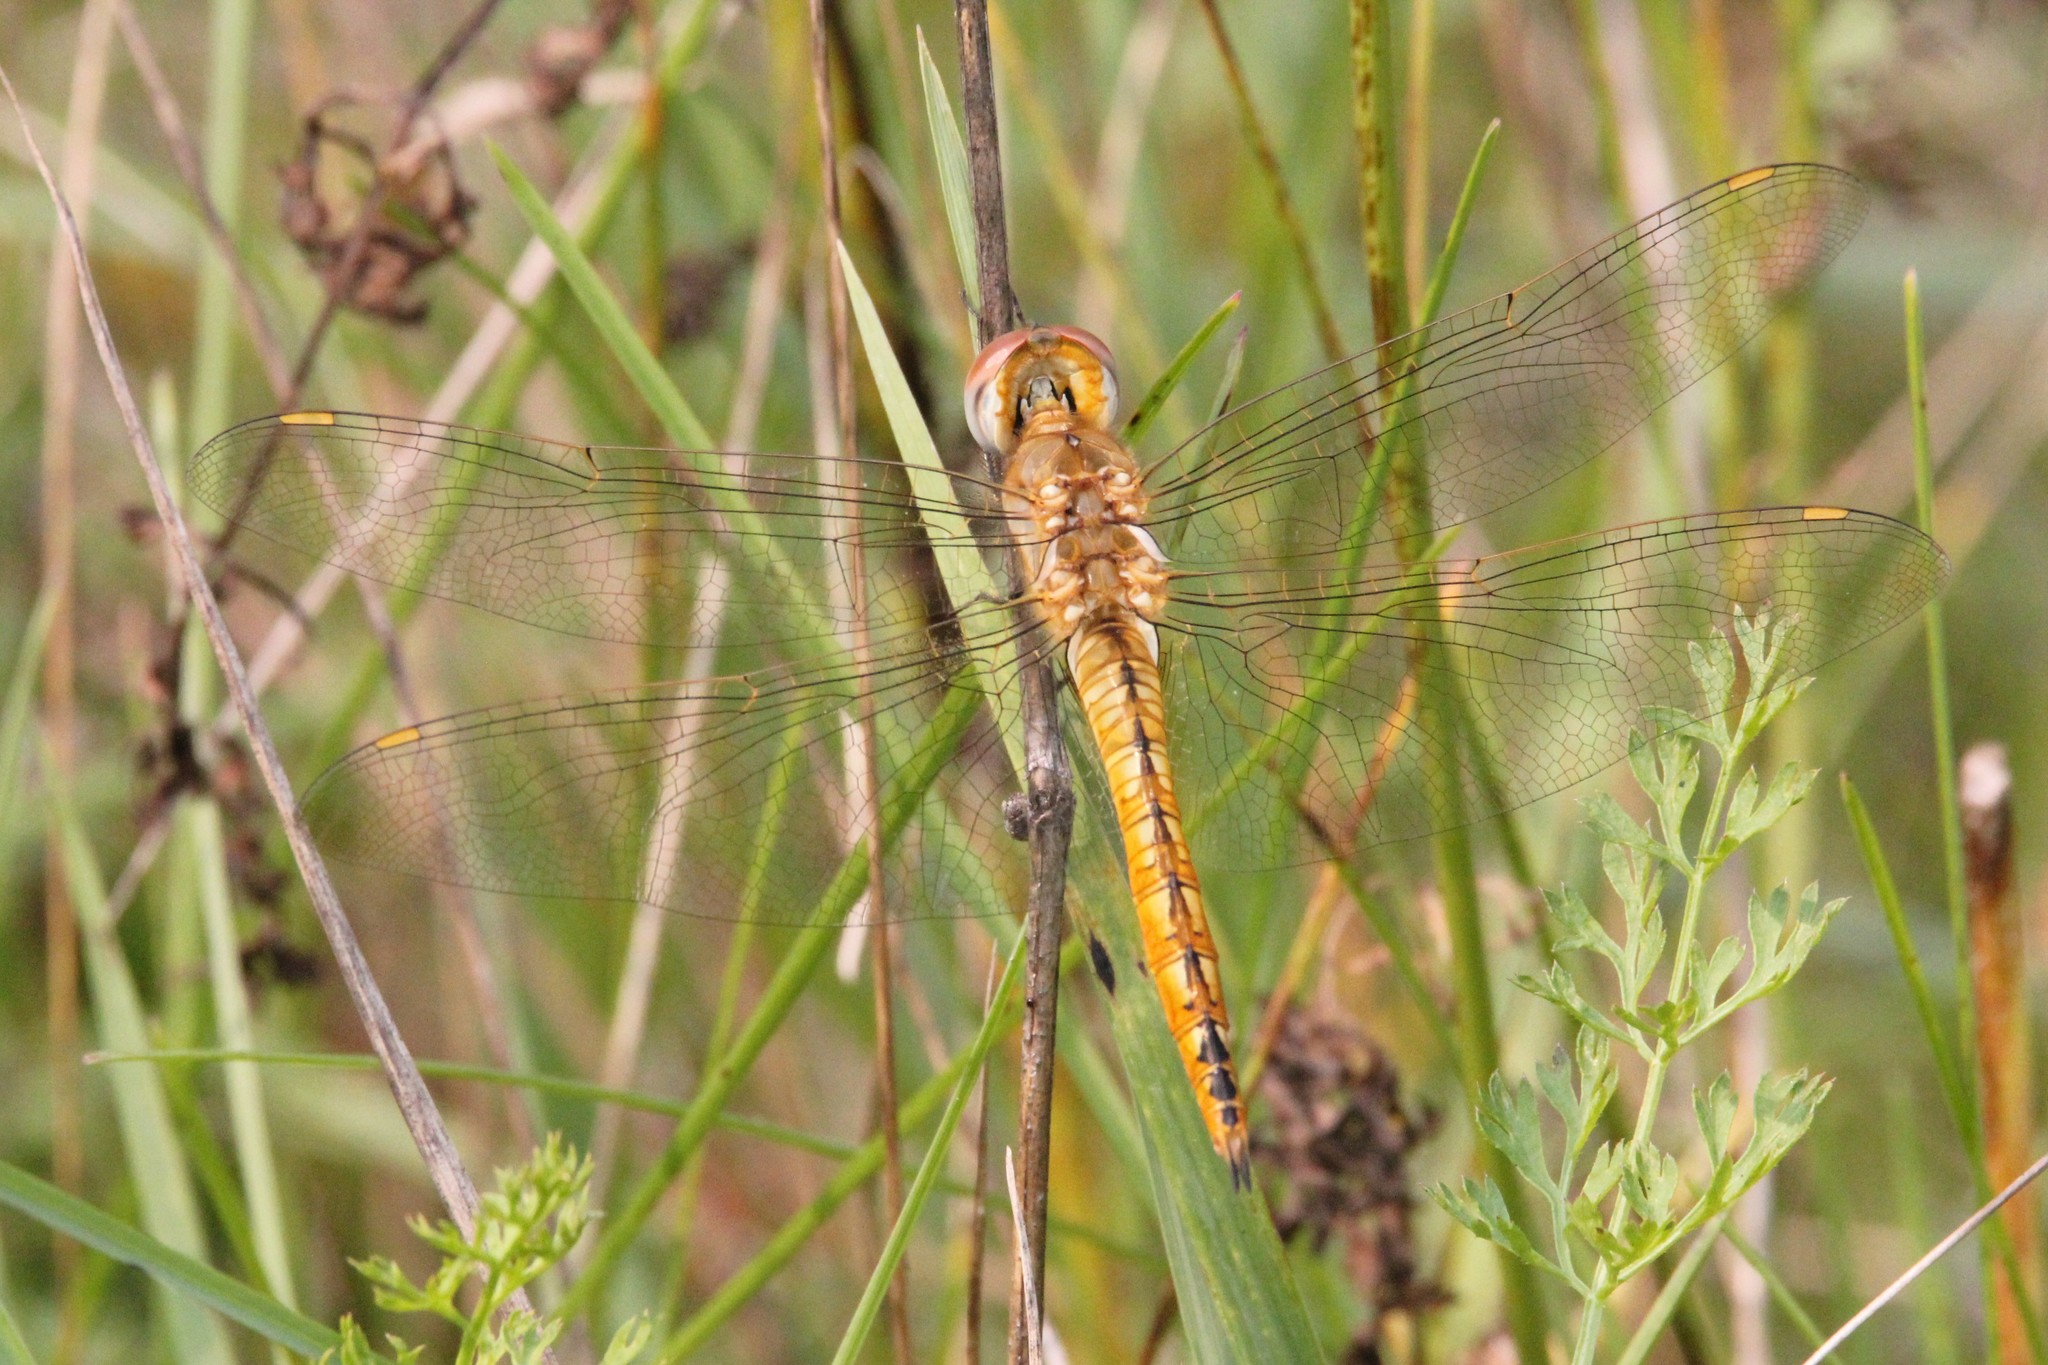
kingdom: Animalia
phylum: Arthropoda
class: Insecta
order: Odonata
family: Libellulidae
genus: Pantala
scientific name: Pantala flavescens
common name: Wandering glider
